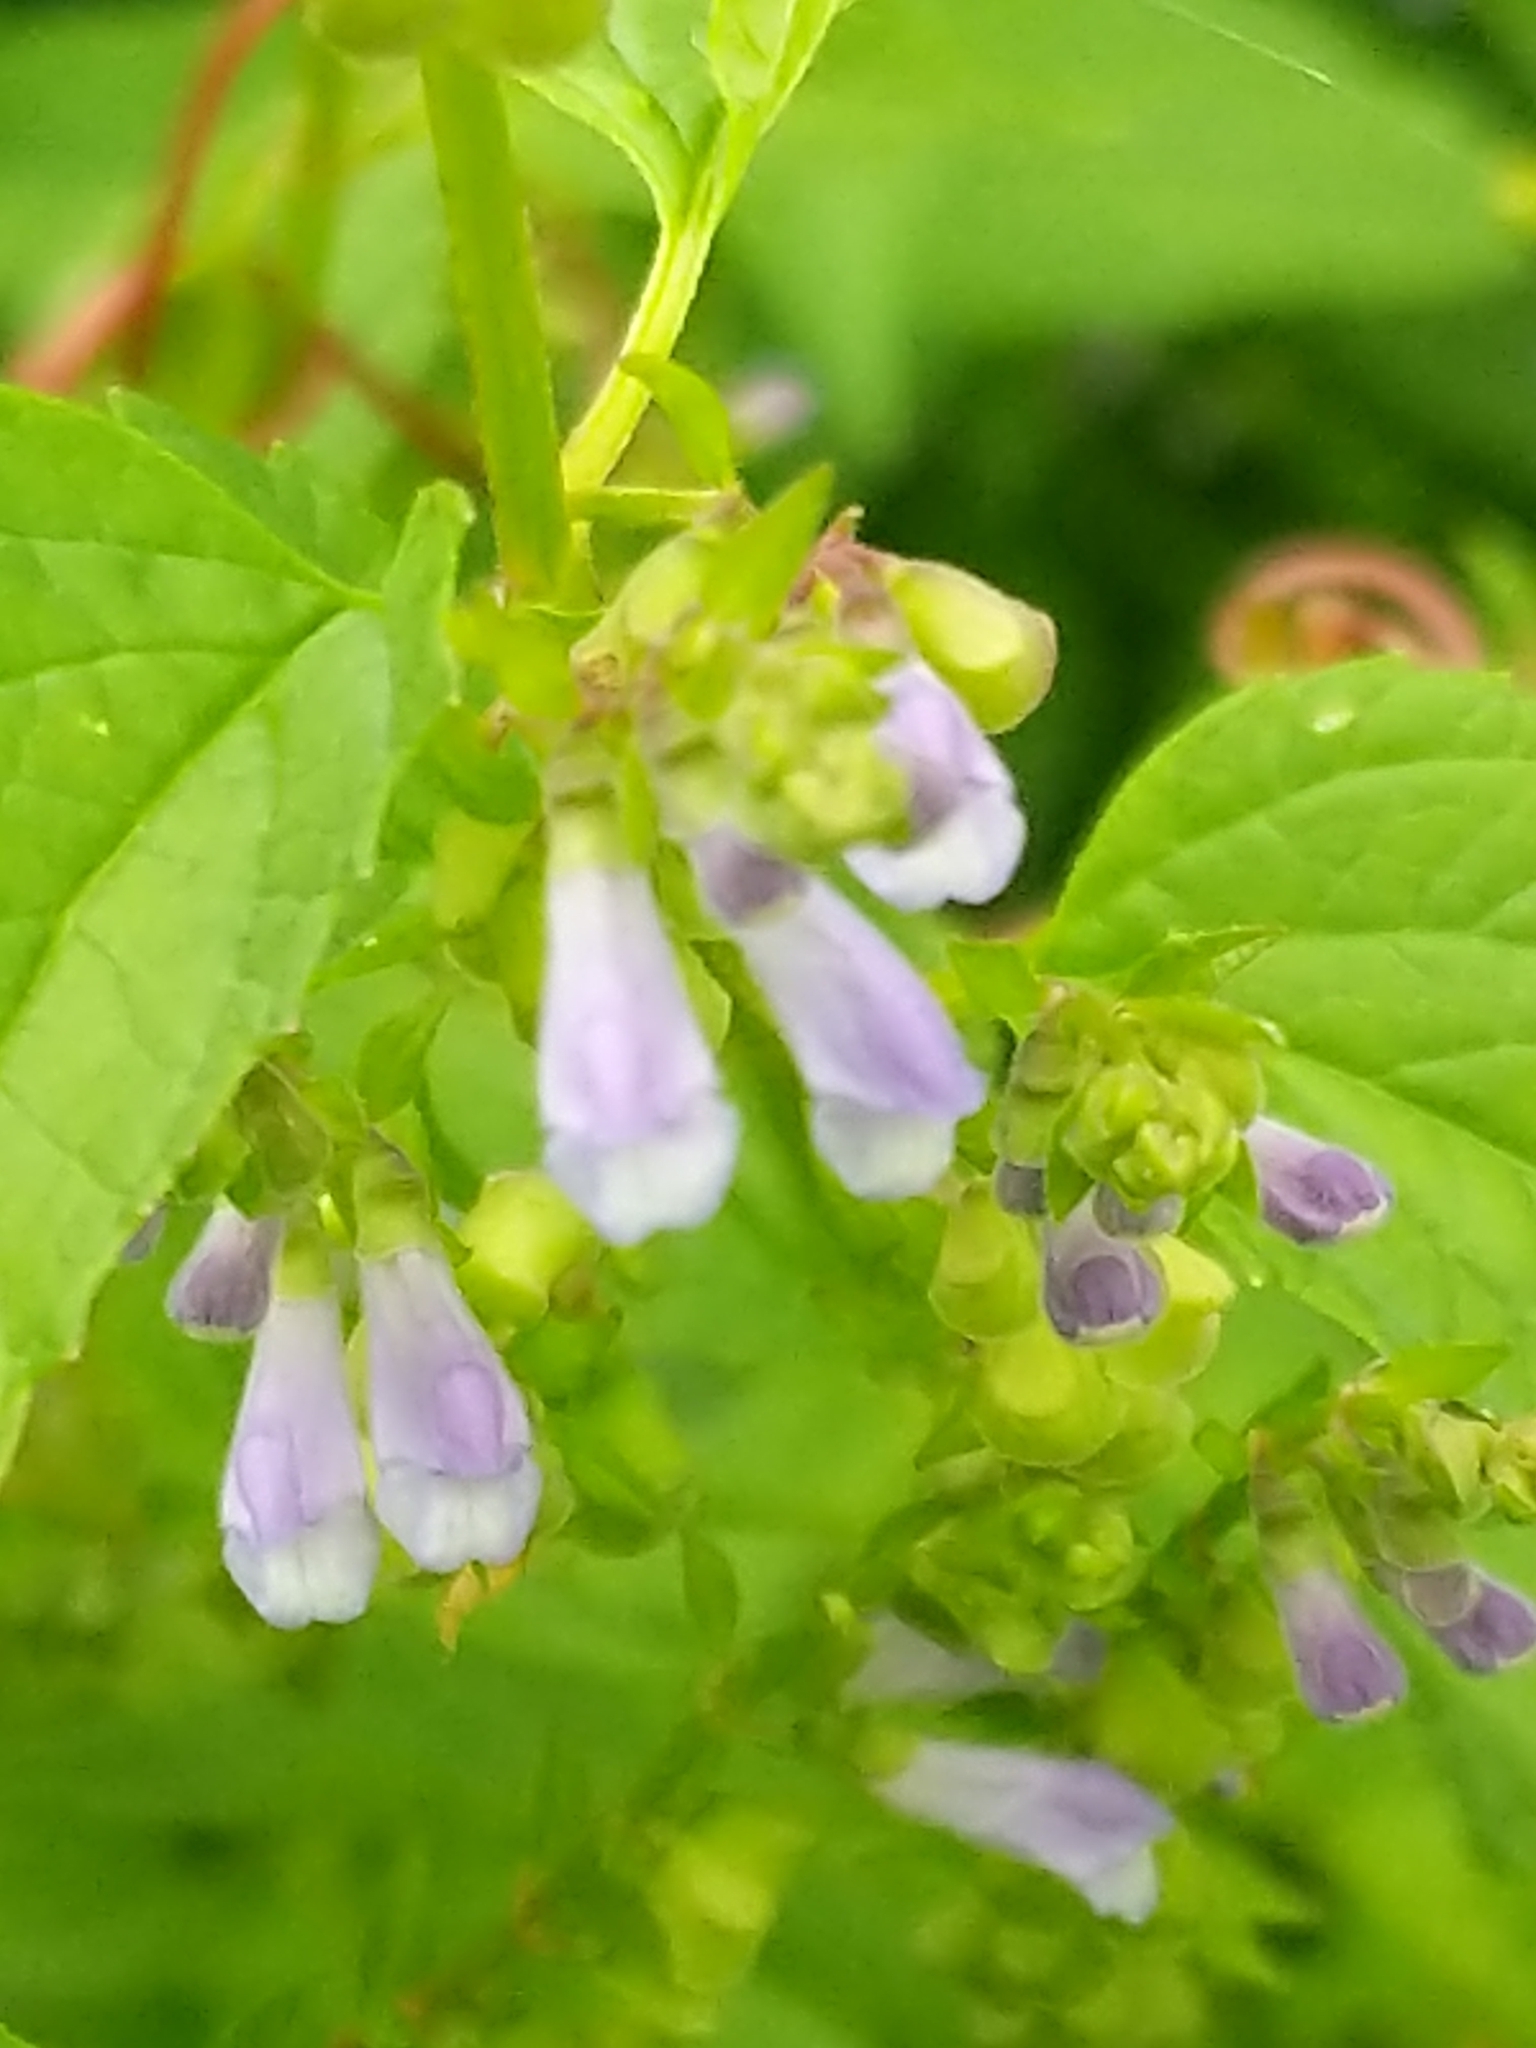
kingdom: Plantae
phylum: Tracheophyta
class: Magnoliopsida
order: Lamiales
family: Lamiaceae
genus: Scutellaria
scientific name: Scutellaria lateriflora
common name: Blue skullcap
